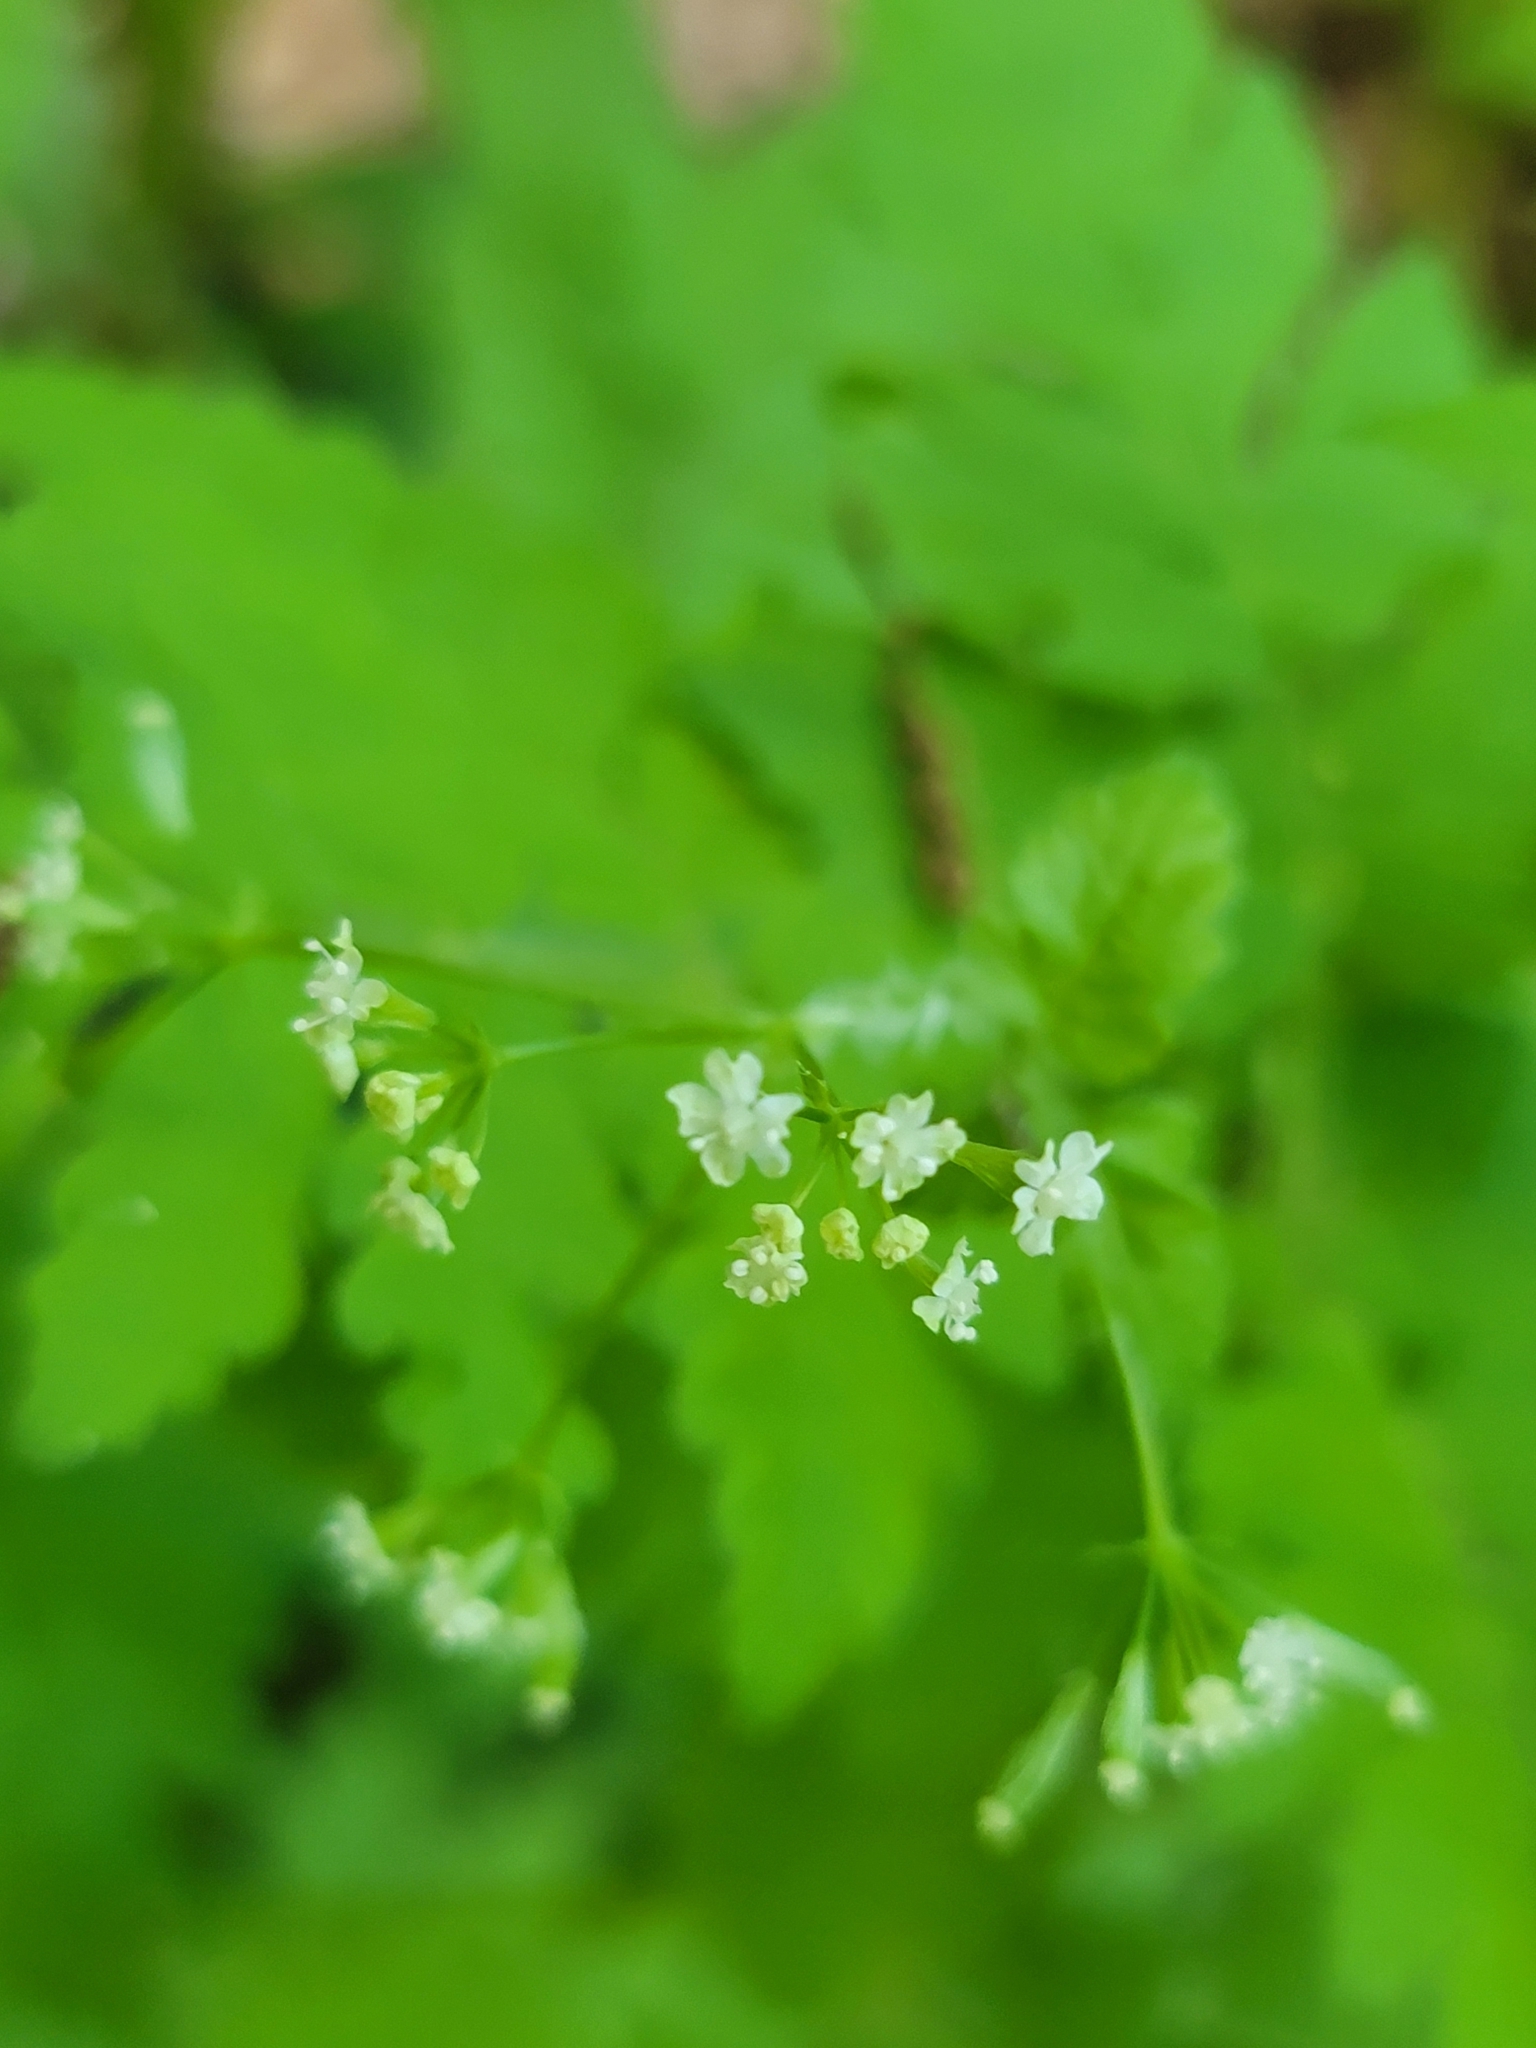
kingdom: Plantae
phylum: Tracheophyta
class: Magnoliopsida
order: Apiales
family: Apiaceae
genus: Osmorhiza
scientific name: Osmorhiza claytonii
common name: Hairy sweet cicely
